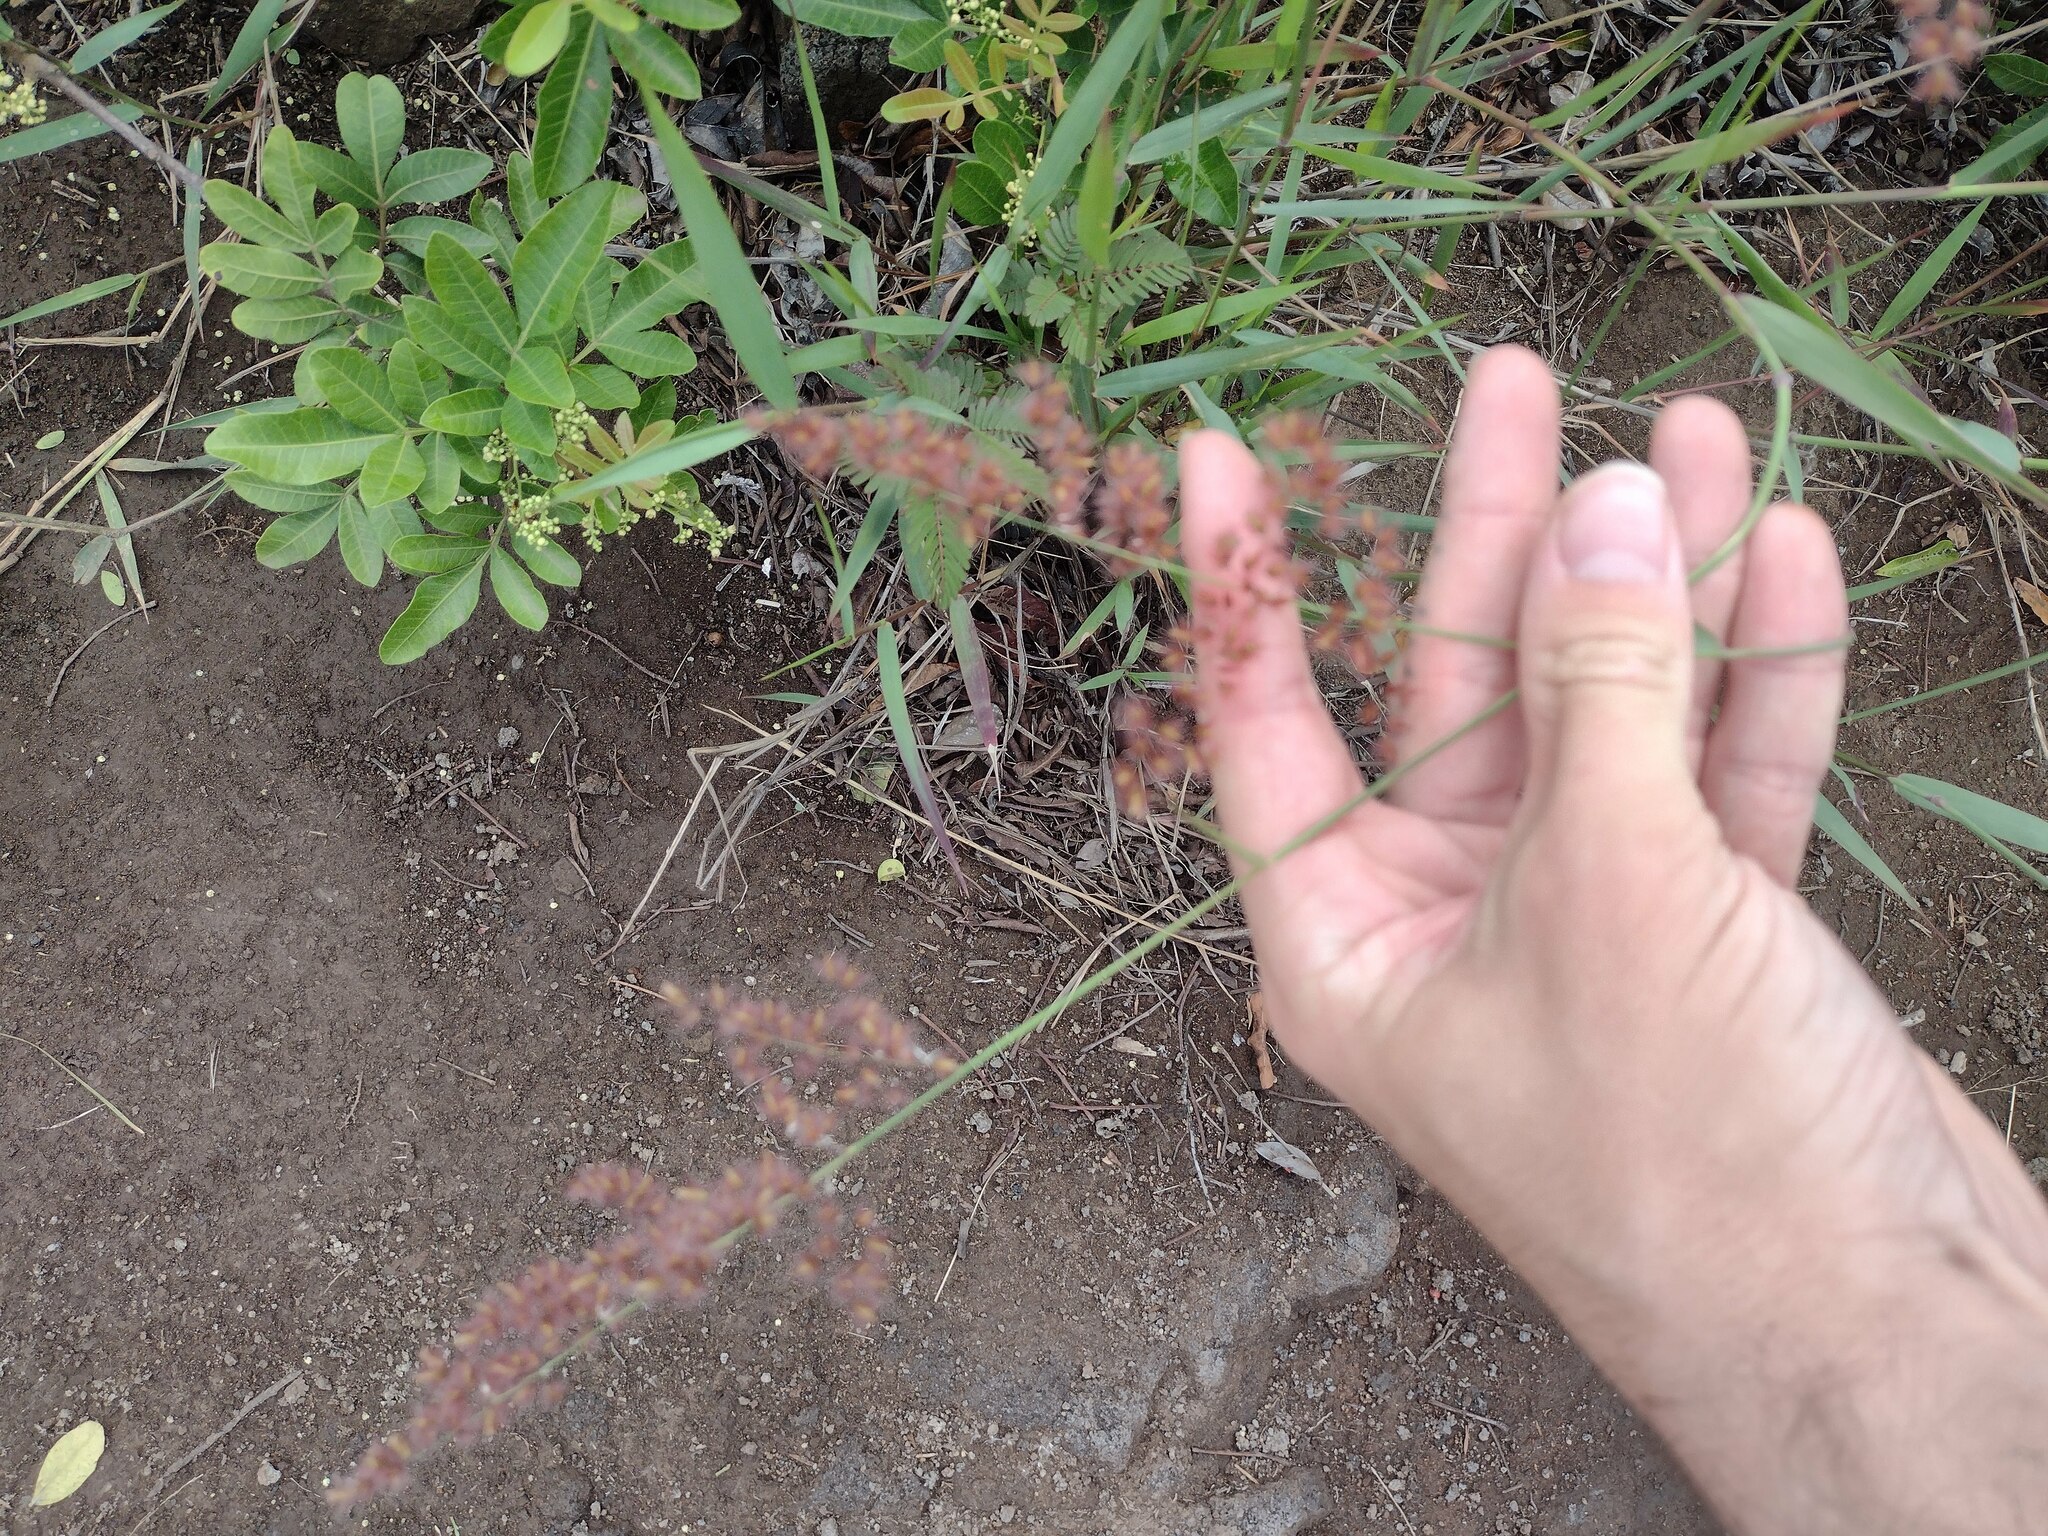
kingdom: Plantae
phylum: Tracheophyta
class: Liliopsida
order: Poales
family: Poaceae
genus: Melinis
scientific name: Melinis repens
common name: Rose natal grass
